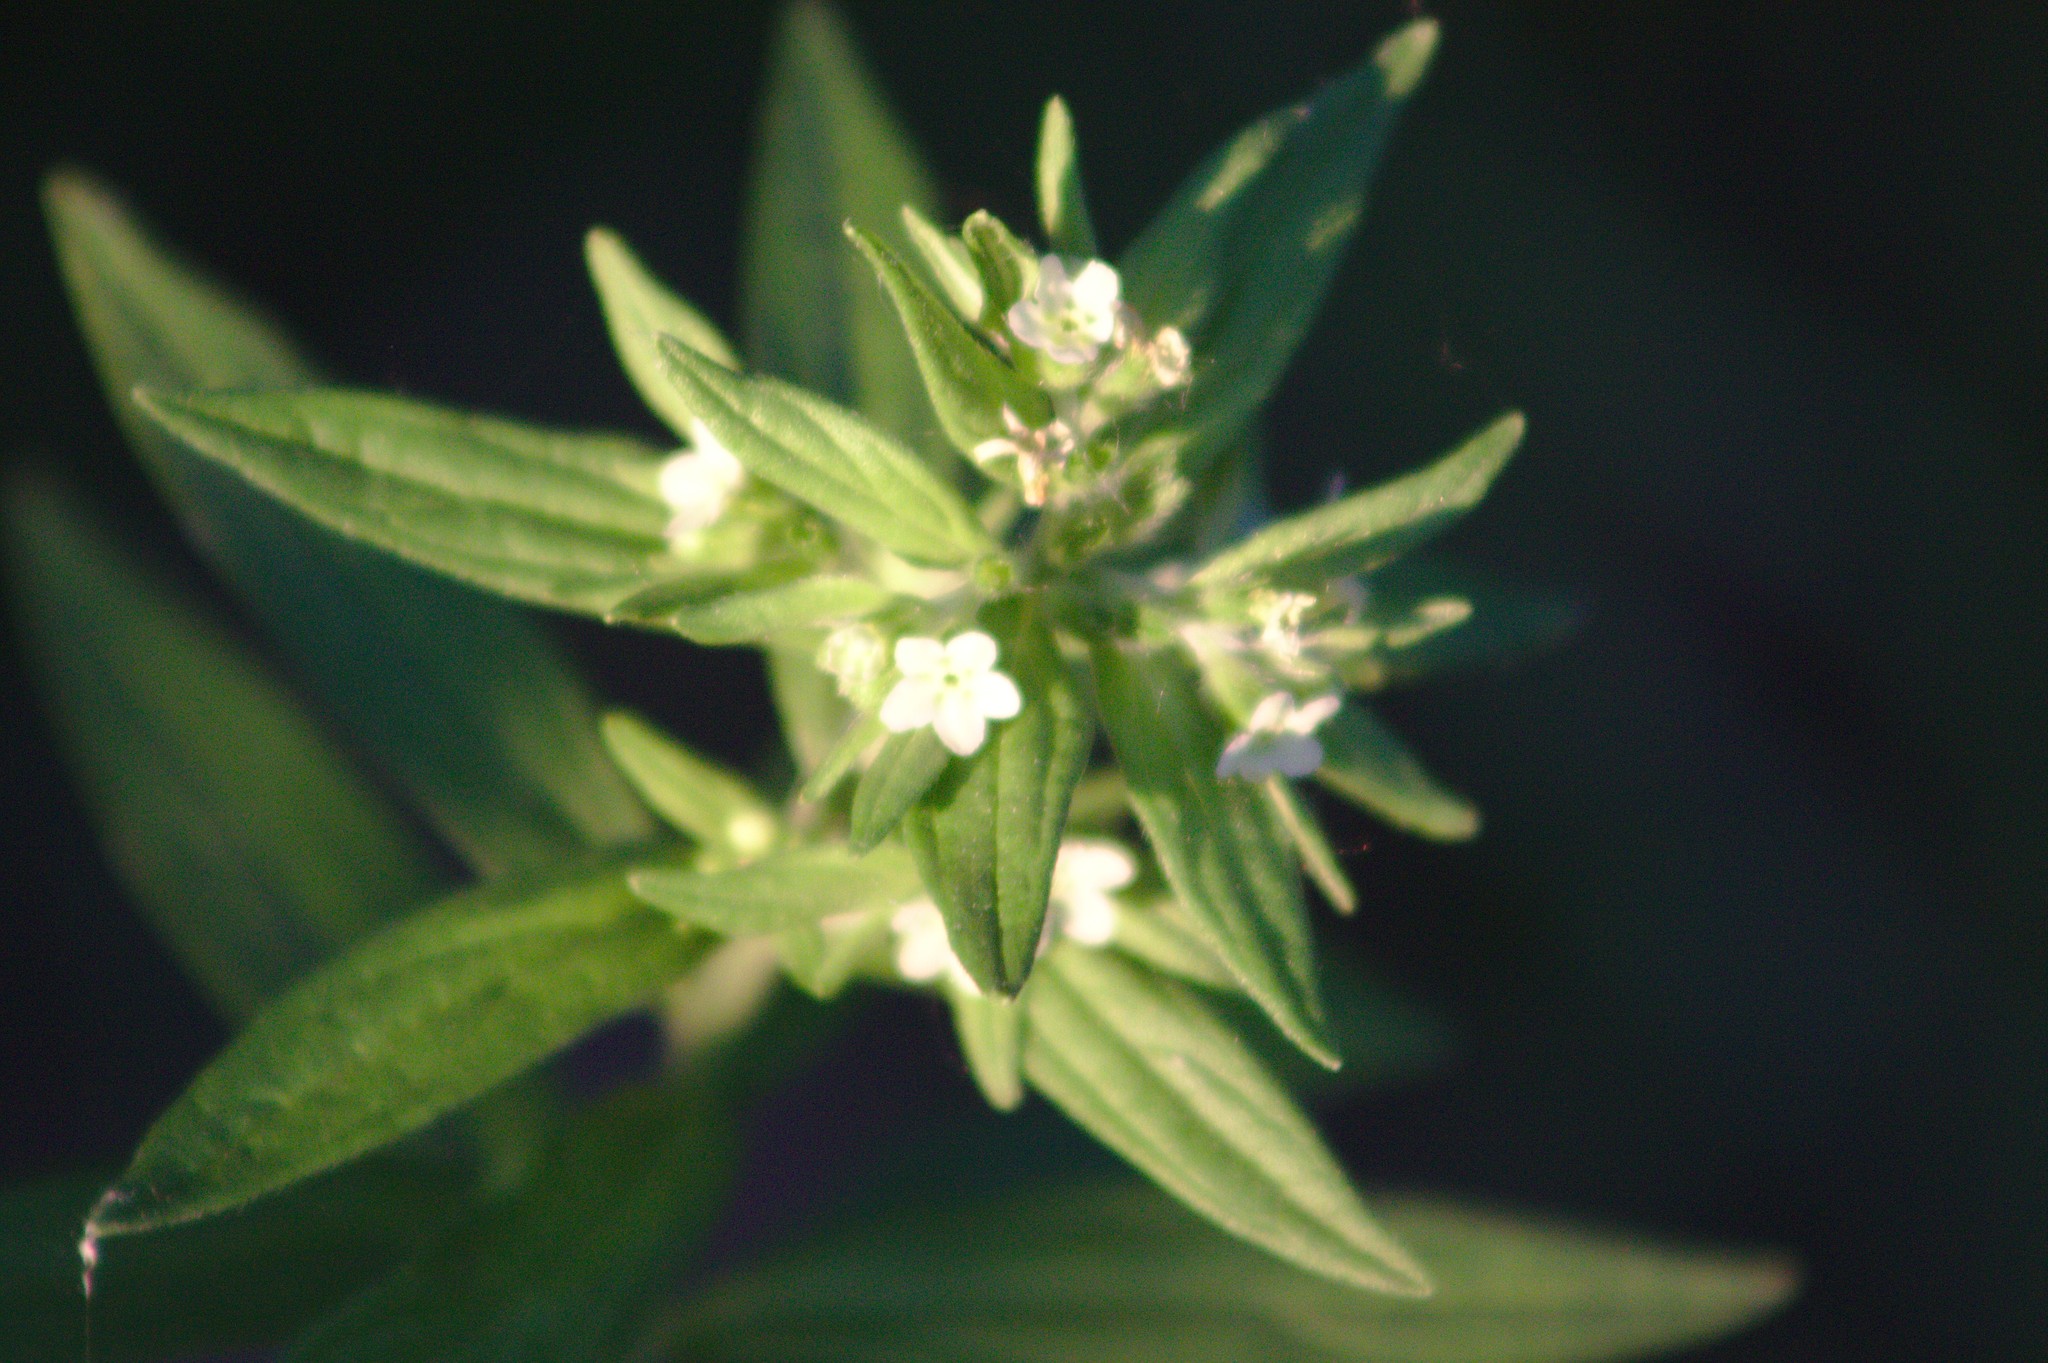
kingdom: Plantae
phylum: Tracheophyta
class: Magnoliopsida
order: Boraginales
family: Boraginaceae
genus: Lithospermum
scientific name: Lithospermum officinale
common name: Common gromwell
